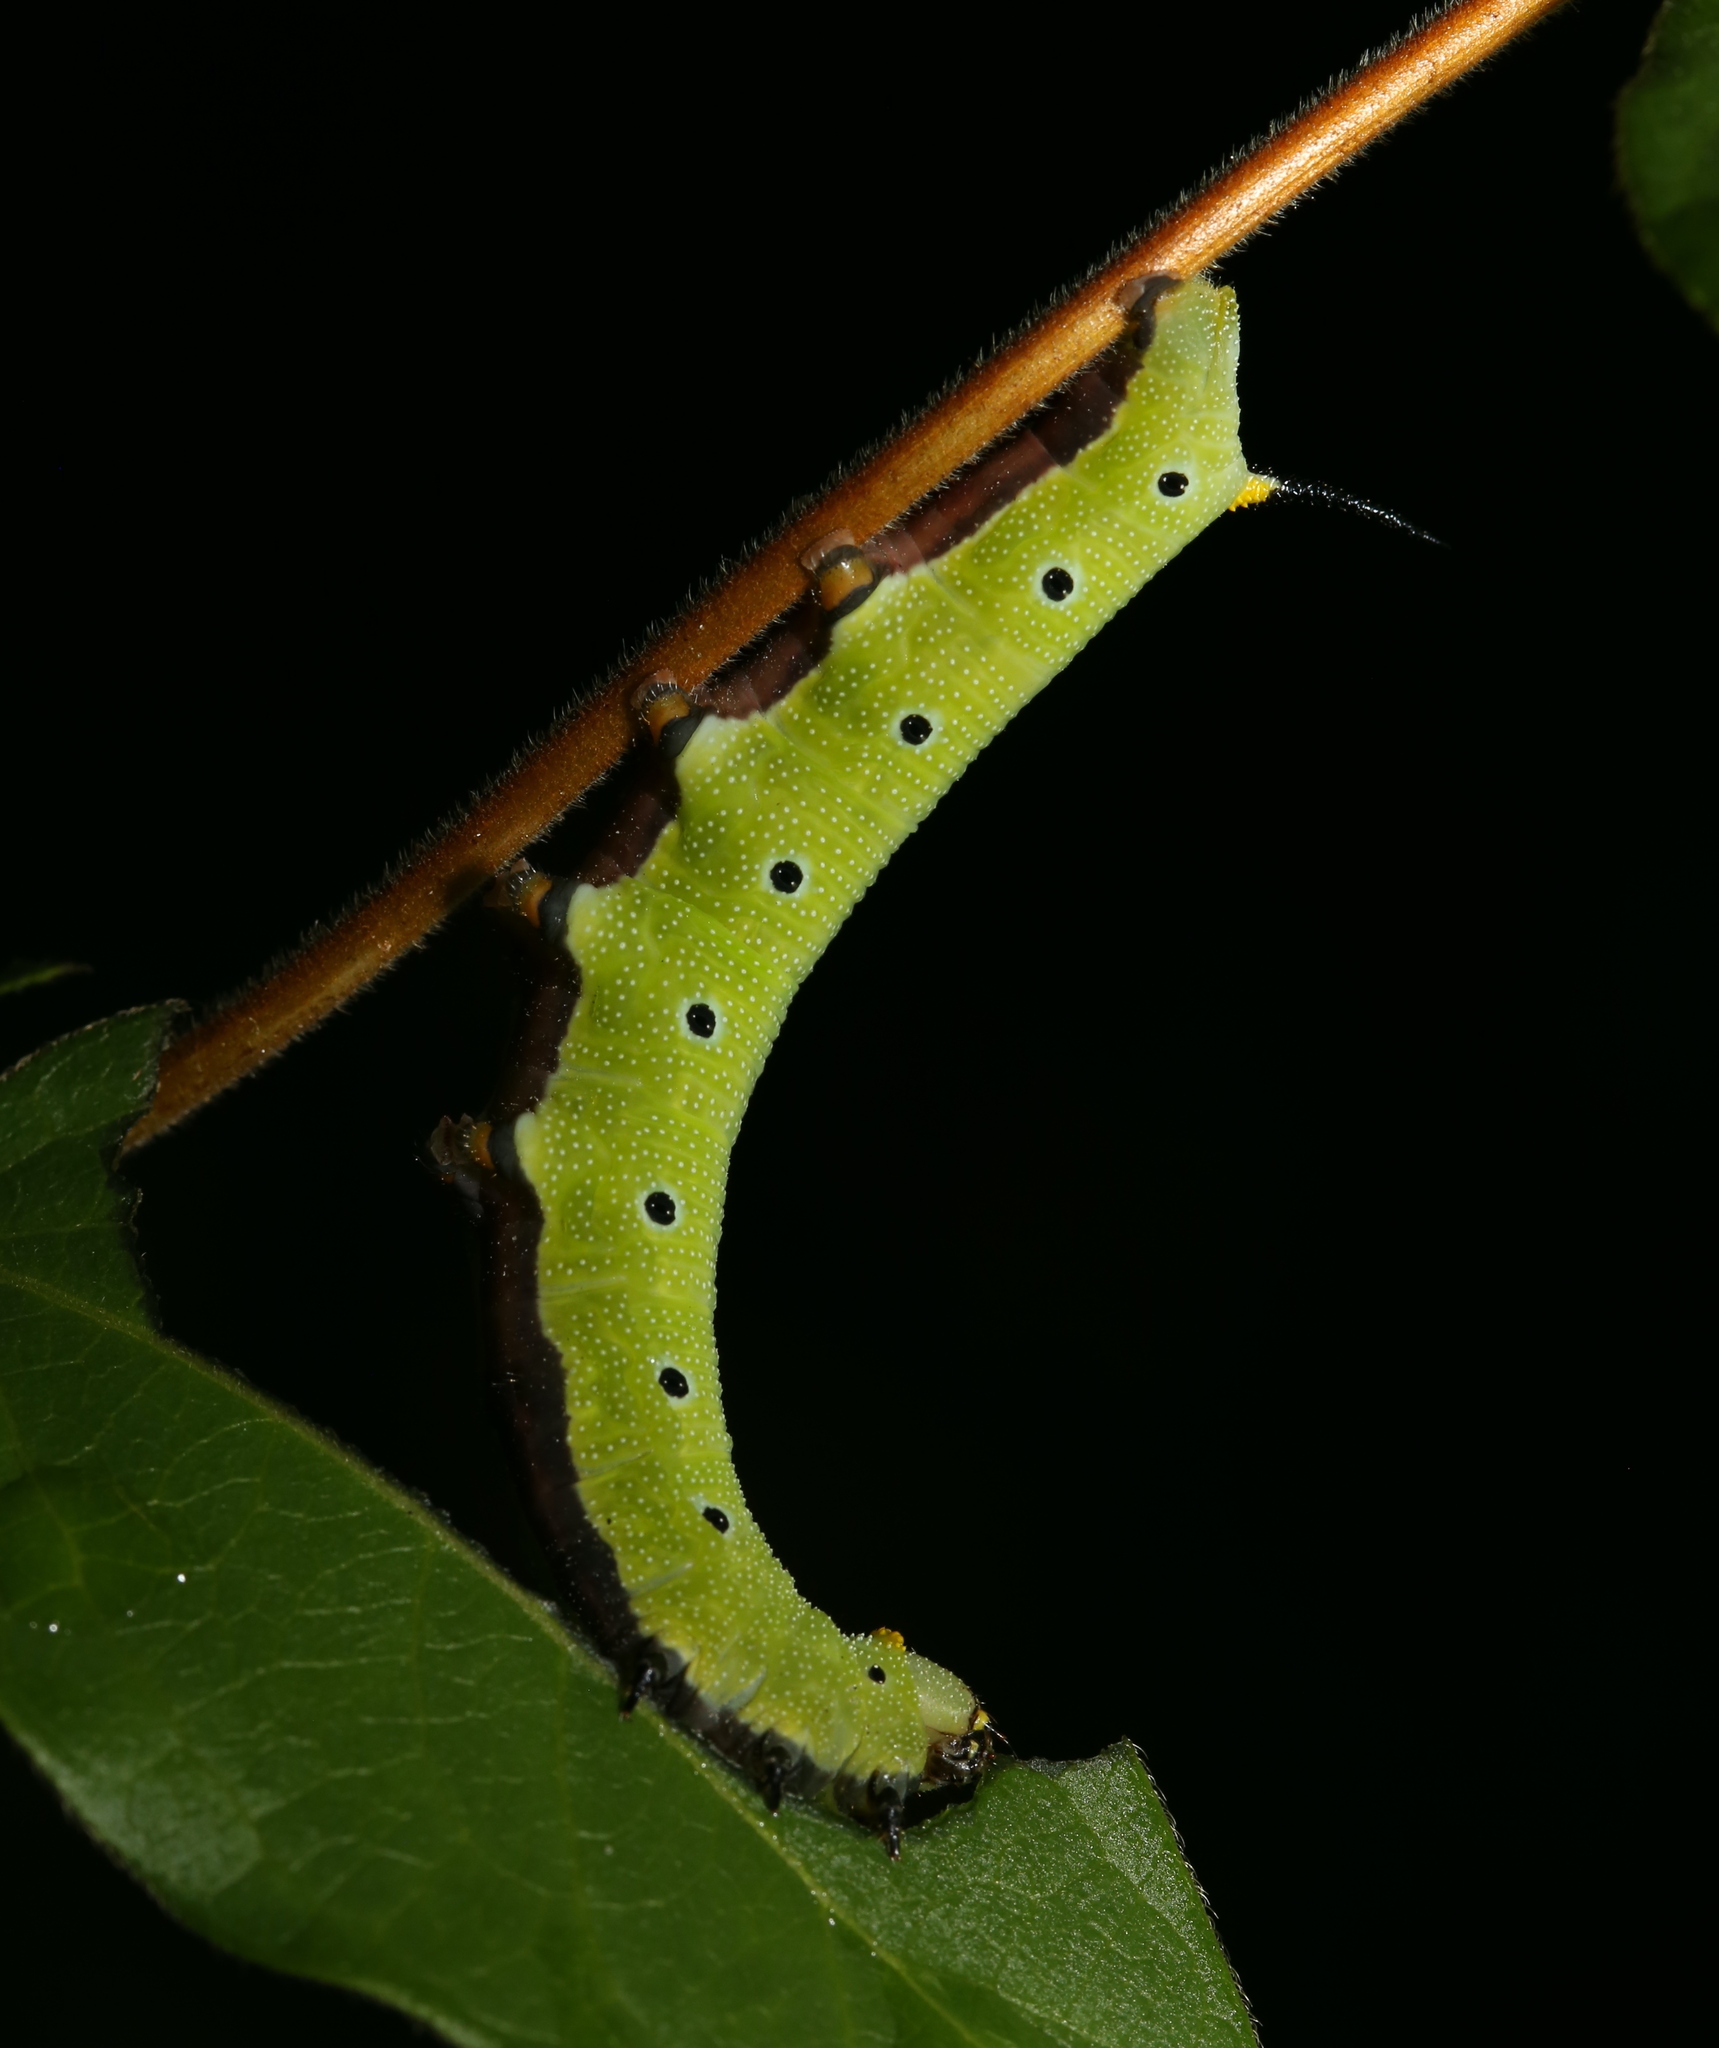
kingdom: Animalia
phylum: Arthropoda
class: Insecta
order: Lepidoptera
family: Sphingidae
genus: Hemaris
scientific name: Hemaris diffinis
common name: Bumblebee moth
